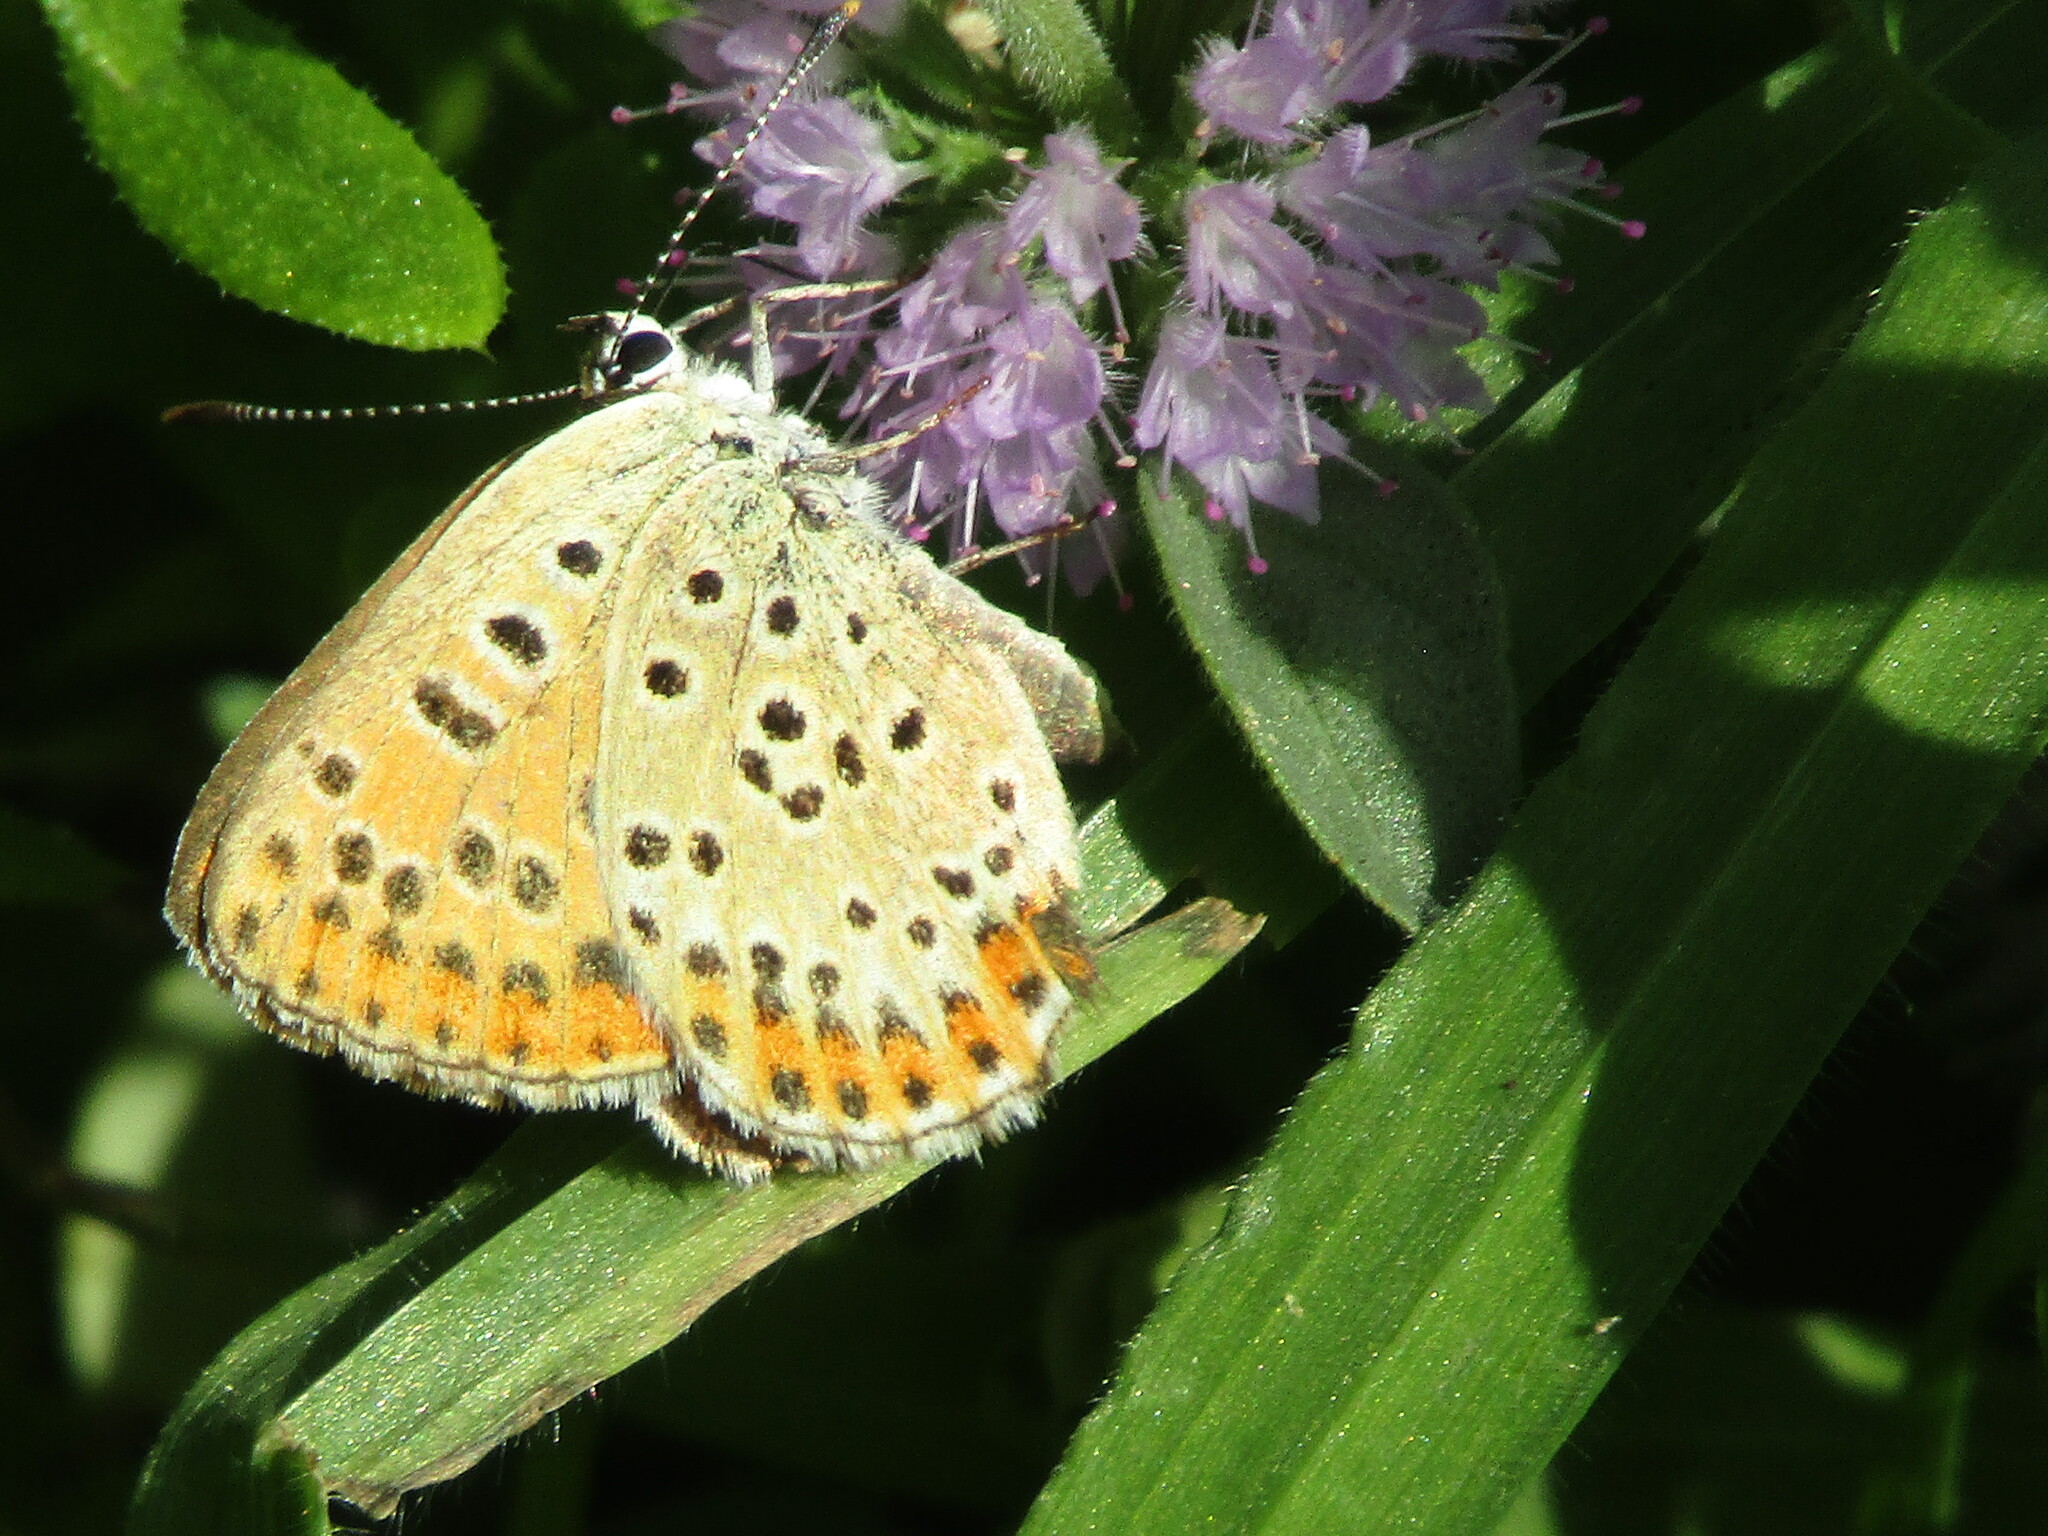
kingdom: Animalia
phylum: Arthropoda
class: Insecta
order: Lepidoptera
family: Lycaenidae
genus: Loweia
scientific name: Loweia tityrus
